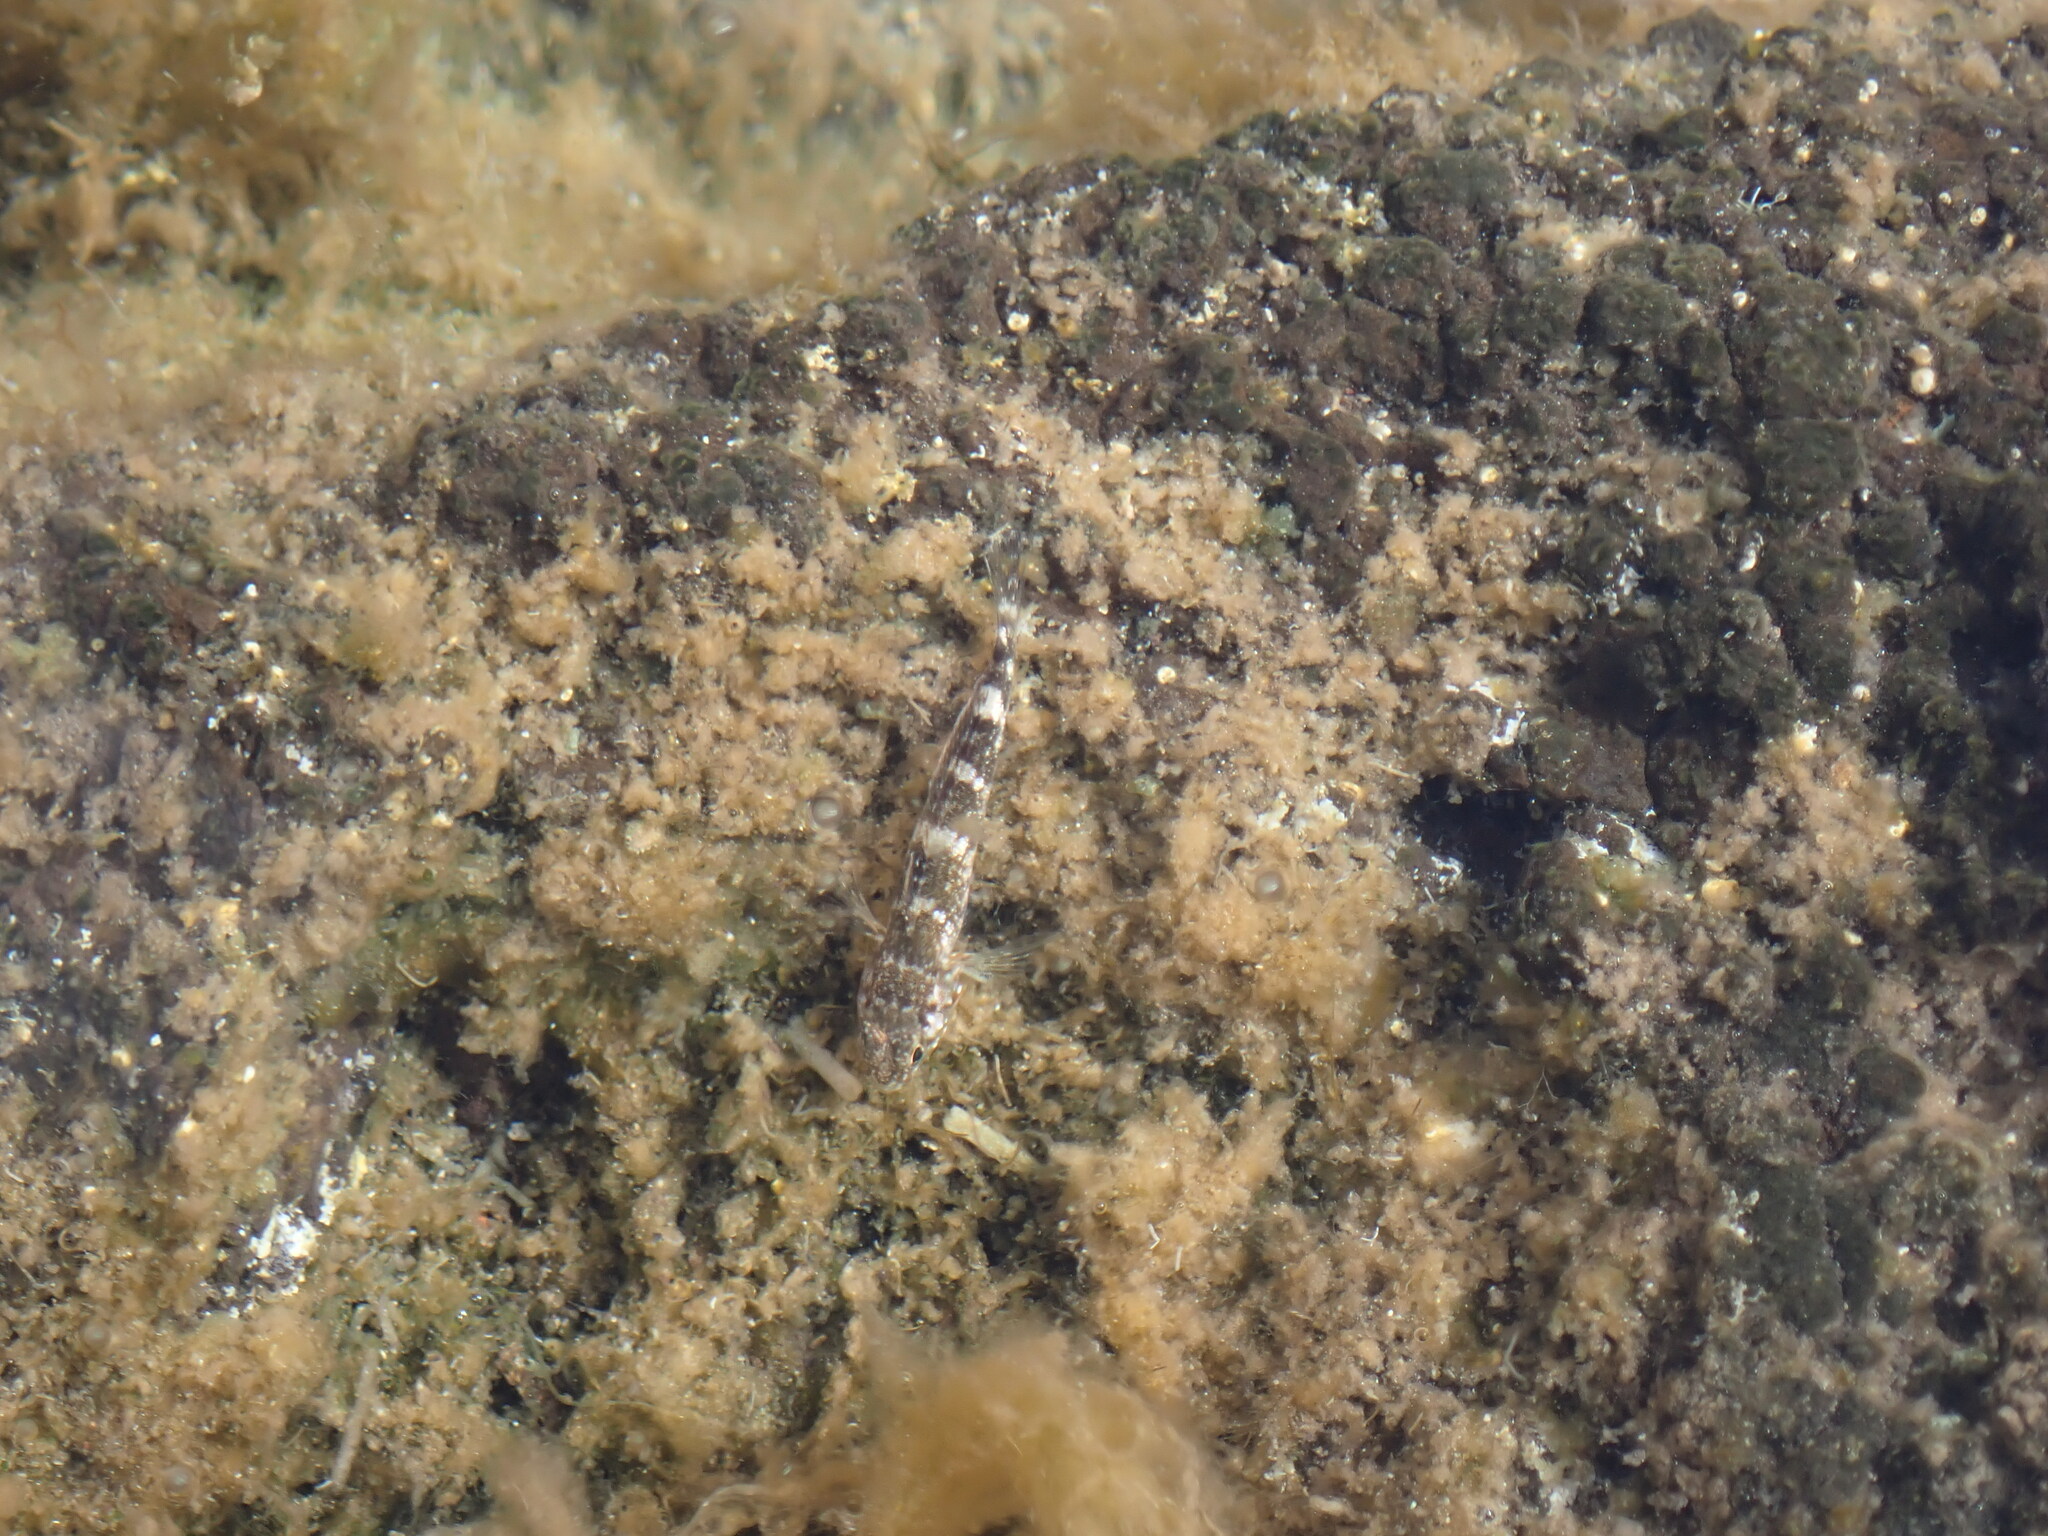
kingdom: Animalia
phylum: Chordata
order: Perciformes
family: Gobiidae
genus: Mauligobius
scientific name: Mauligobius maderensis
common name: Rock goby
